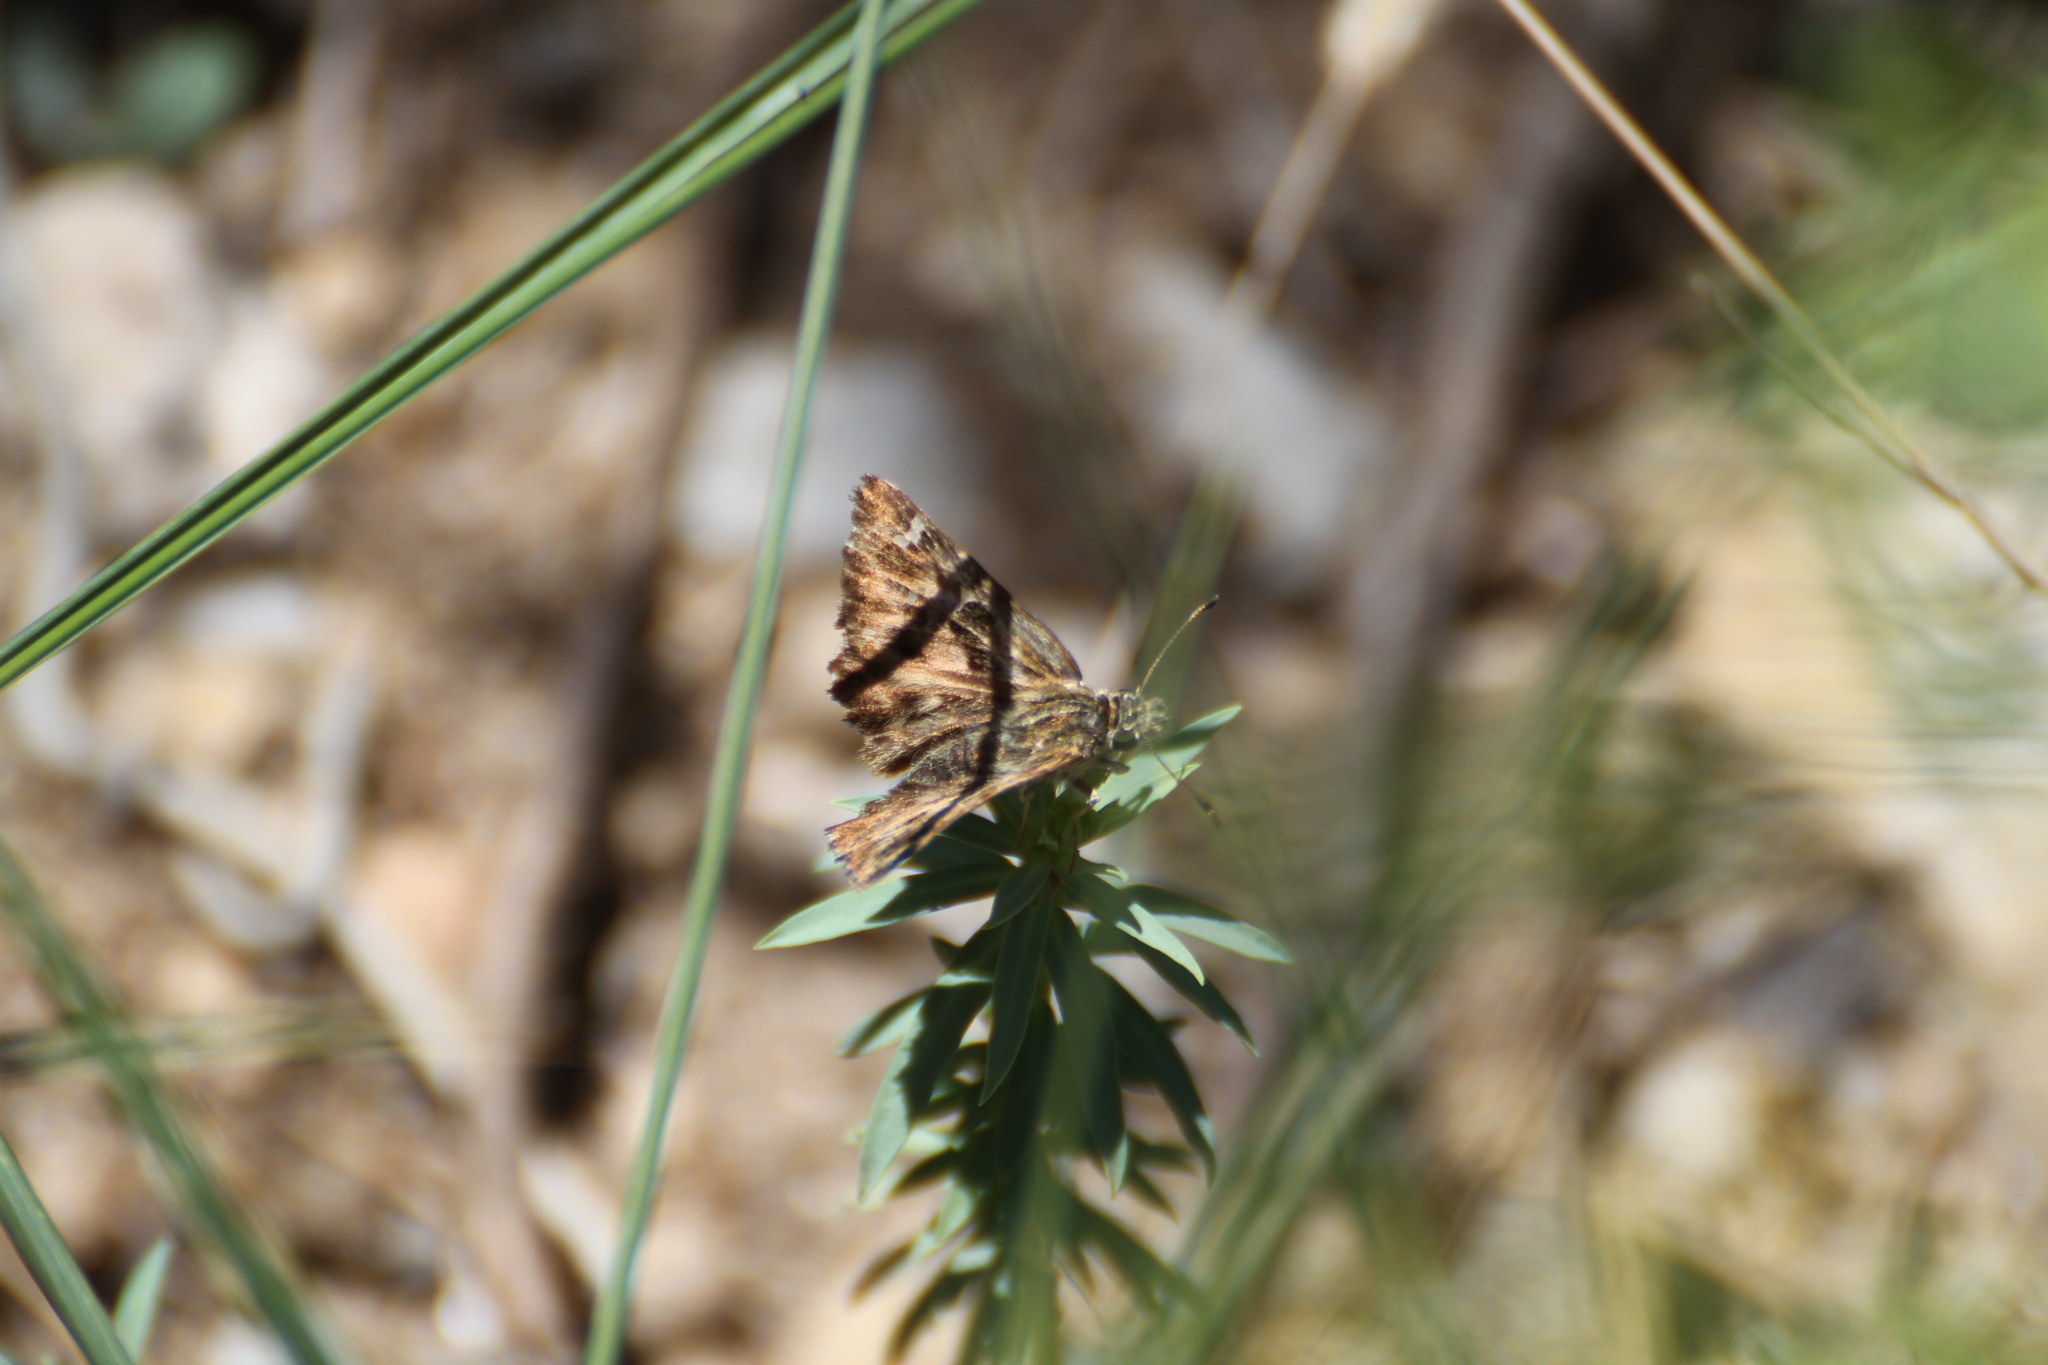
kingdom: Animalia
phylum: Arthropoda
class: Insecta
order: Lepidoptera
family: Hesperiidae
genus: Carcharodus
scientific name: Carcharodus alceae
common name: Mallow skipper
